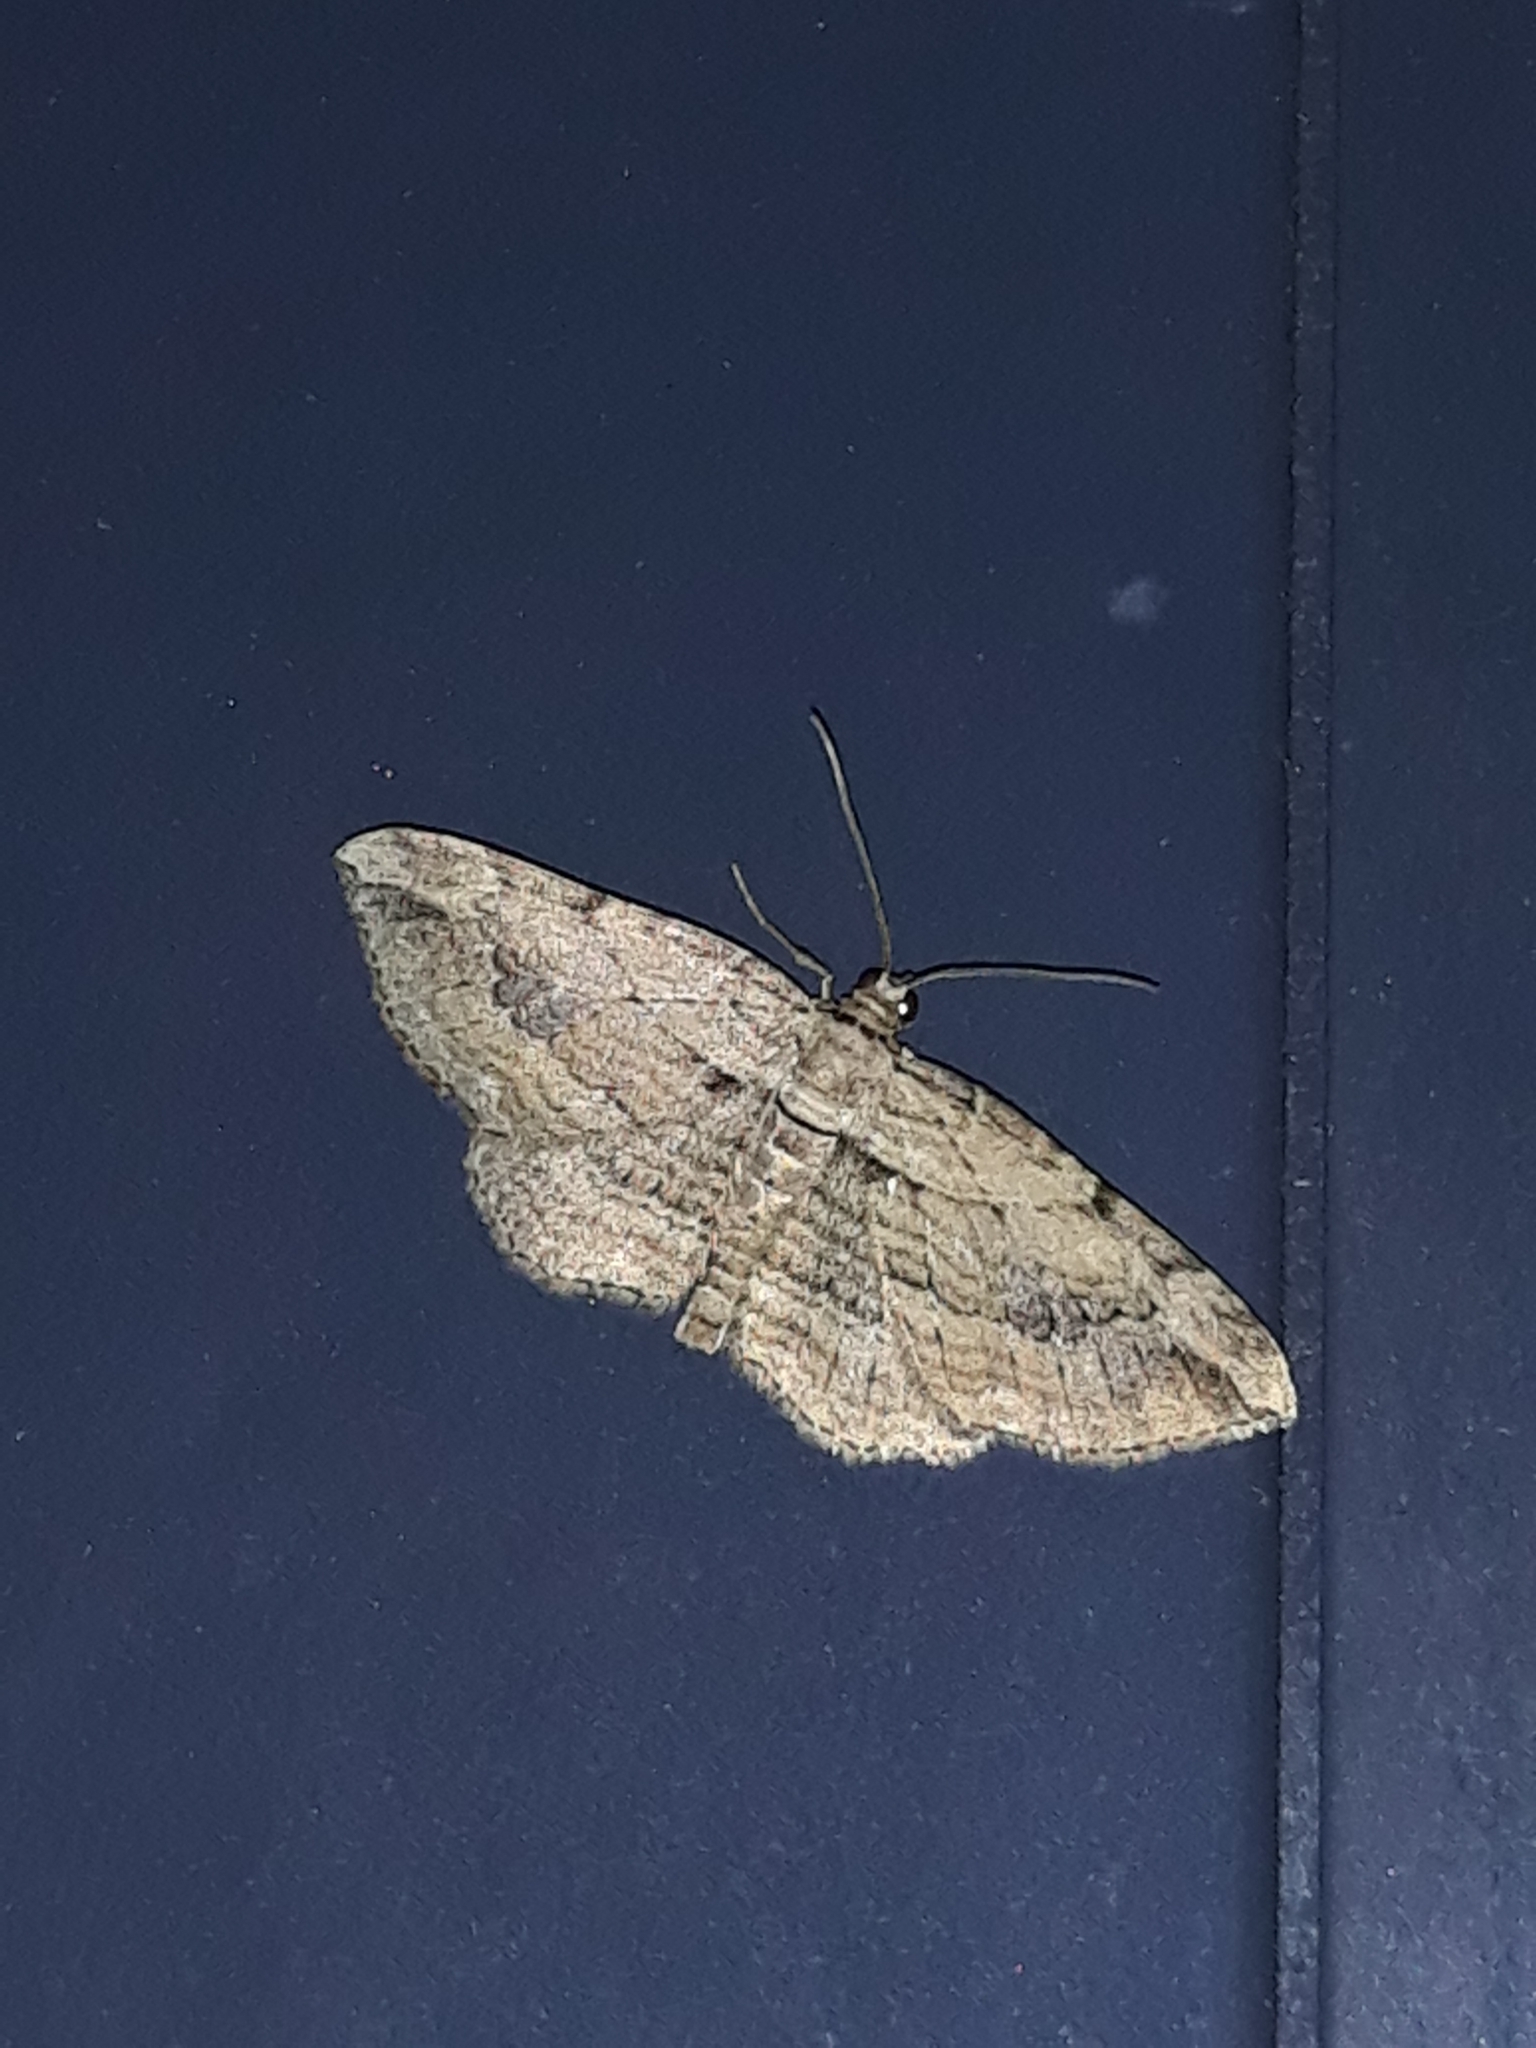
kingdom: Animalia
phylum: Arthropoda
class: Insecta
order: Lepidoptera
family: Geometridae
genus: Horisme
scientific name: Horisme tersata
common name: Fern
